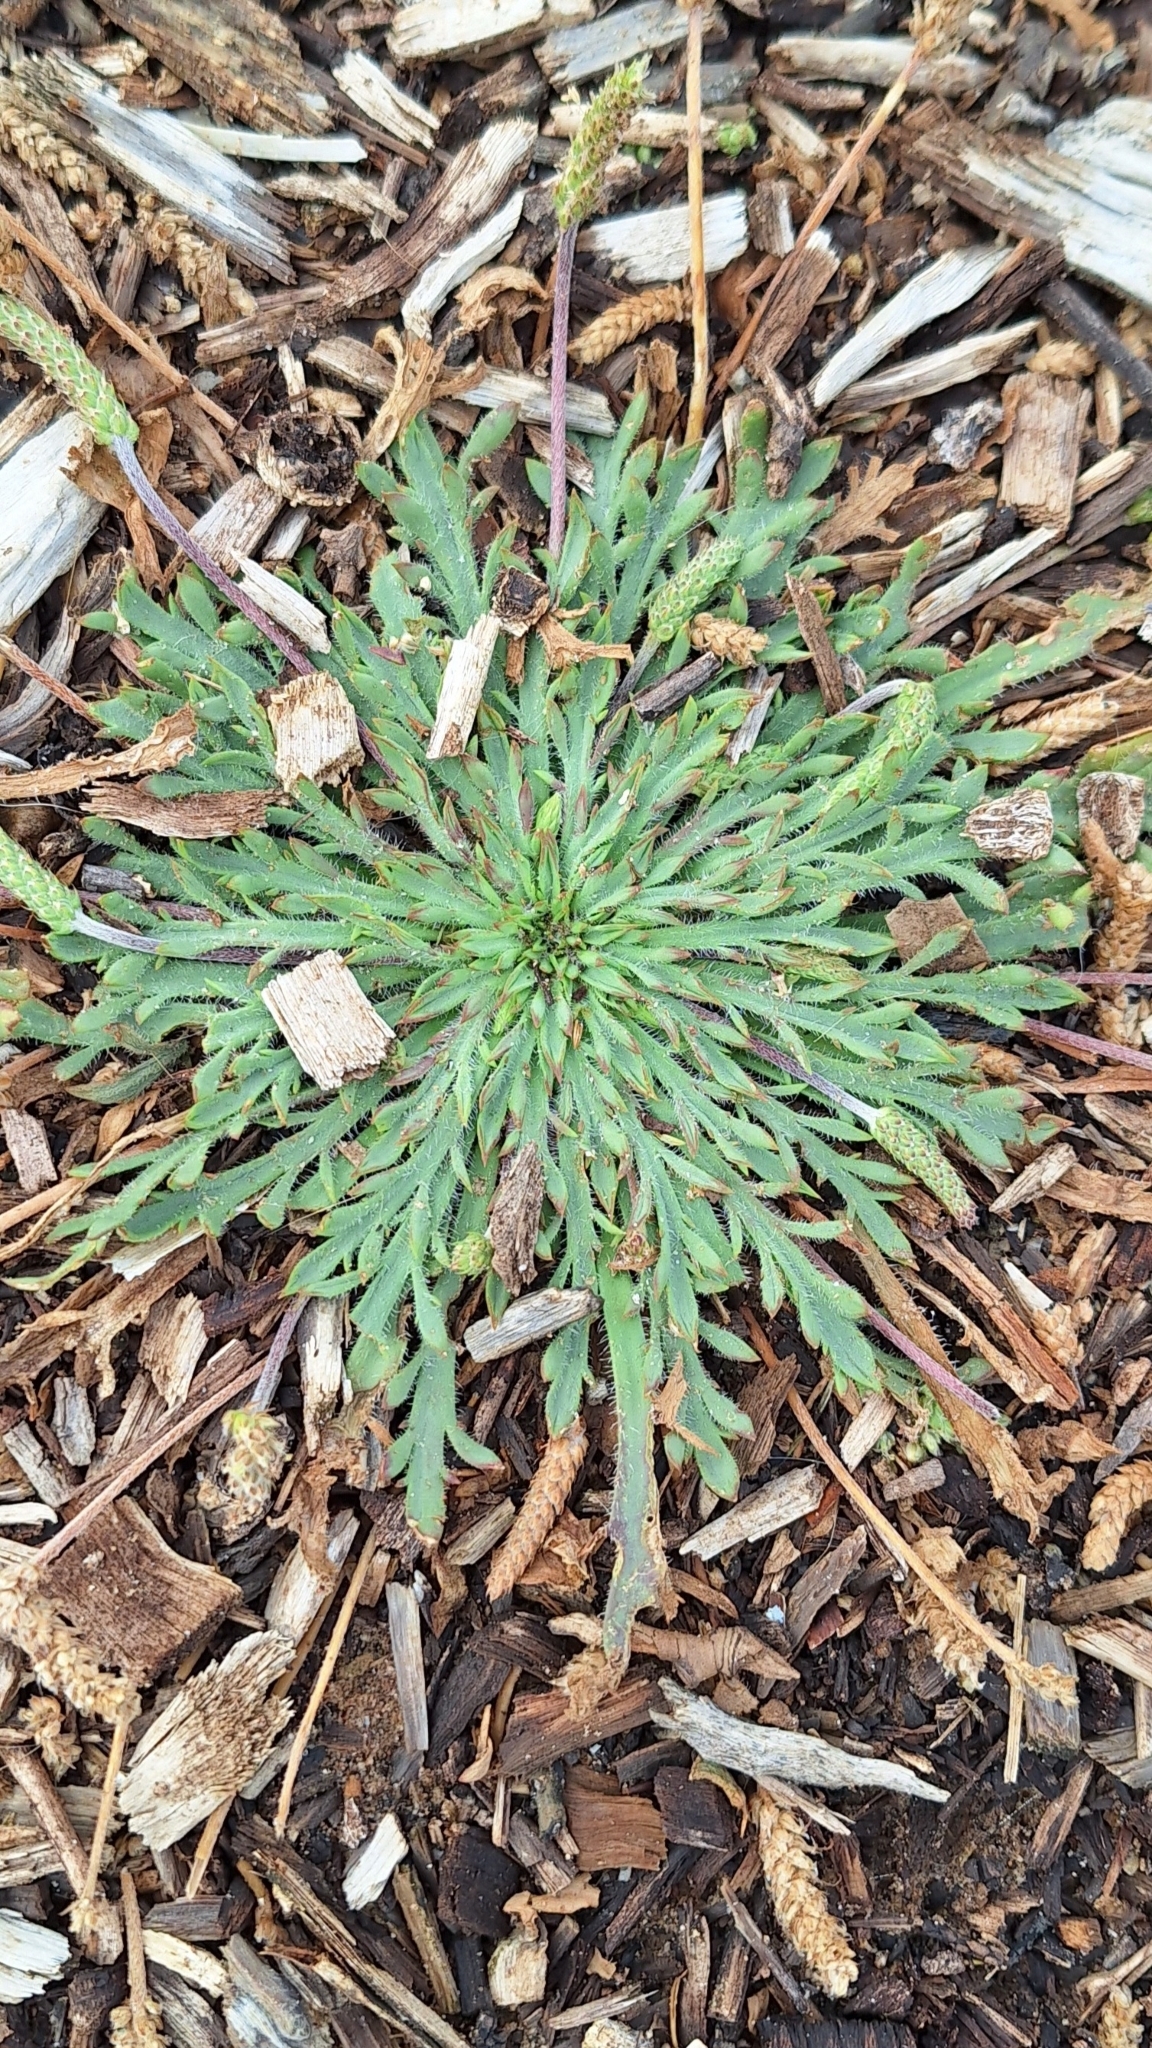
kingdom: Plantae
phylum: Tracheophyta
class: Magnoliopsida
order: Lamiales
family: Plantaginaceae
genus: Plantago
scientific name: Plantago coronopus
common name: Buck's-horn plantain
